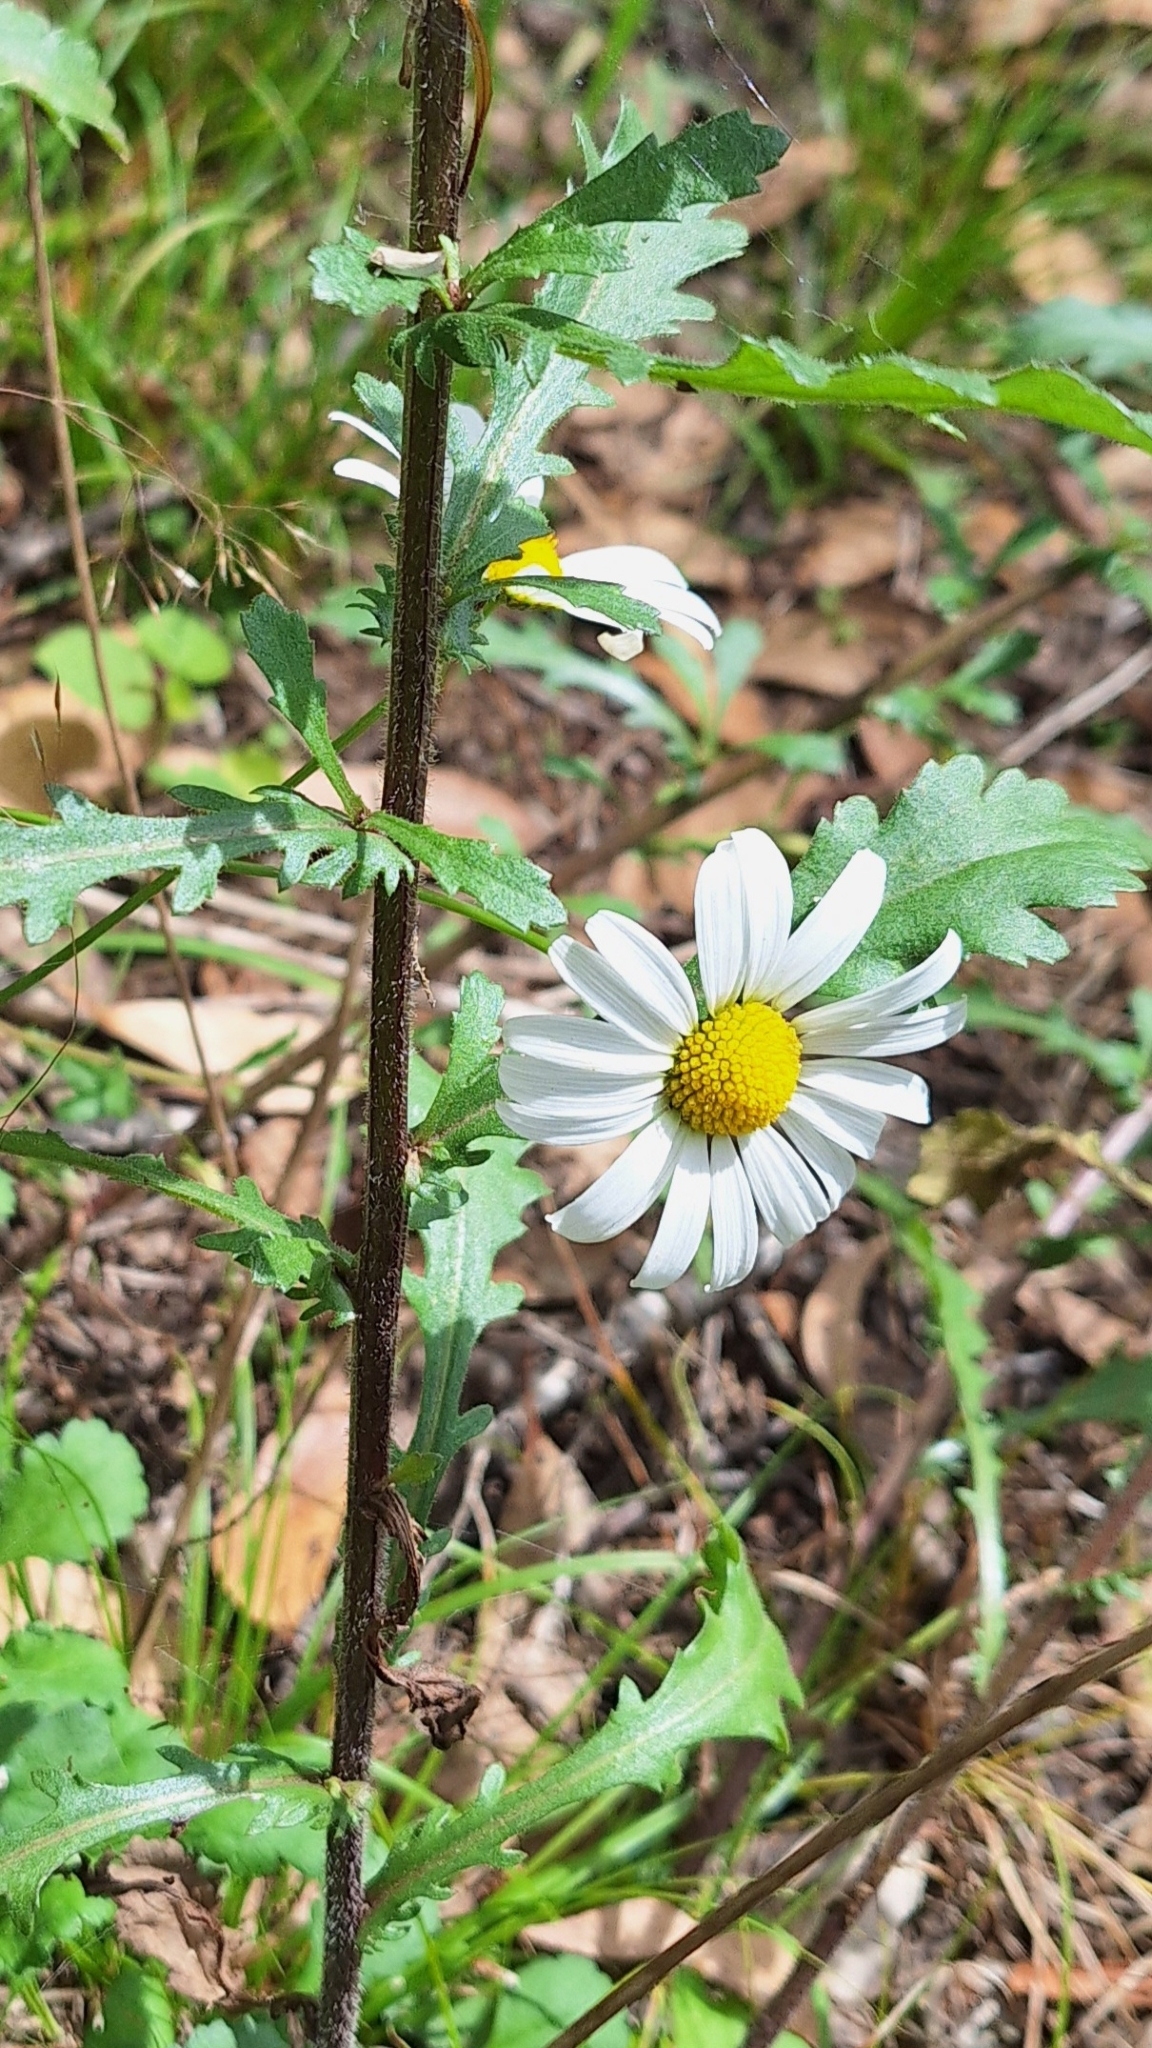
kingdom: Plantae
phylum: Tracheophyta
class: Magnoliopsida
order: Asterales
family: Asteraceae
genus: Leucanthemum
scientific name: Leucanthemum vulgare
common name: Oxeye daisy
